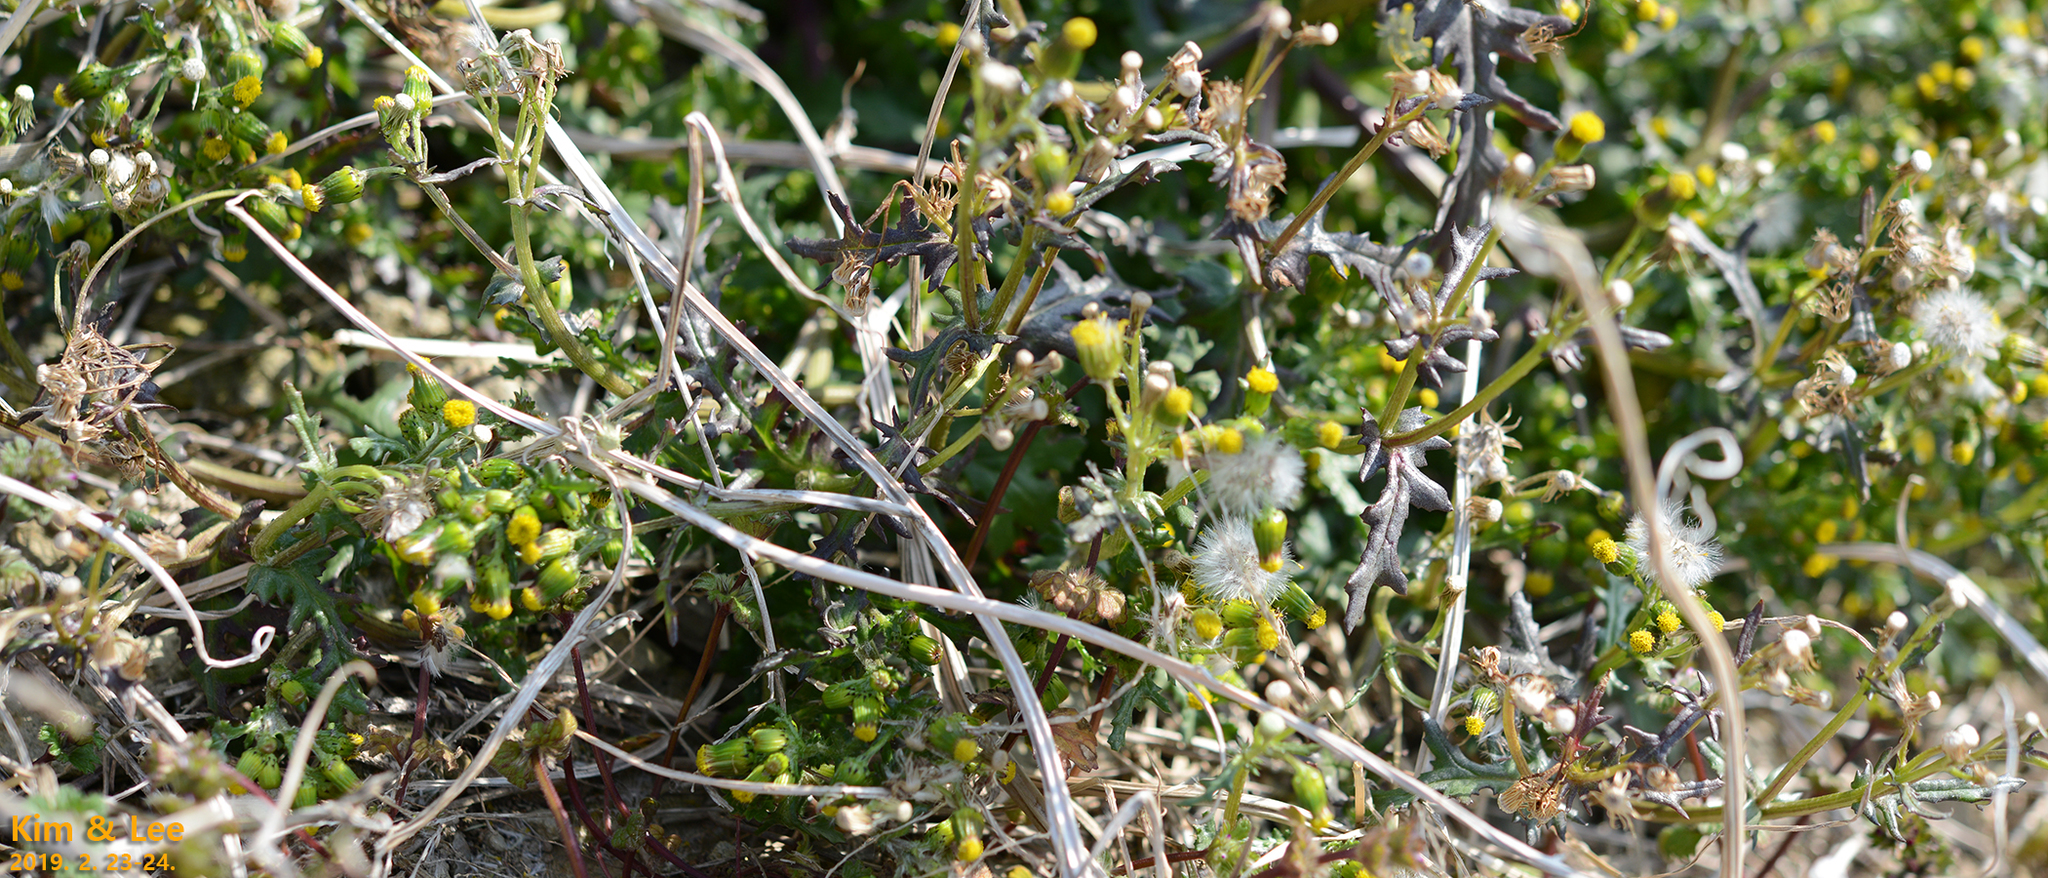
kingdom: Plantae
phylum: Tracheophyta
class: Magnoliopsida
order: Asterales
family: Asteraceae
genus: Senecio
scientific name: Senecio vulgaris
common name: Old-man-in-the-spring
